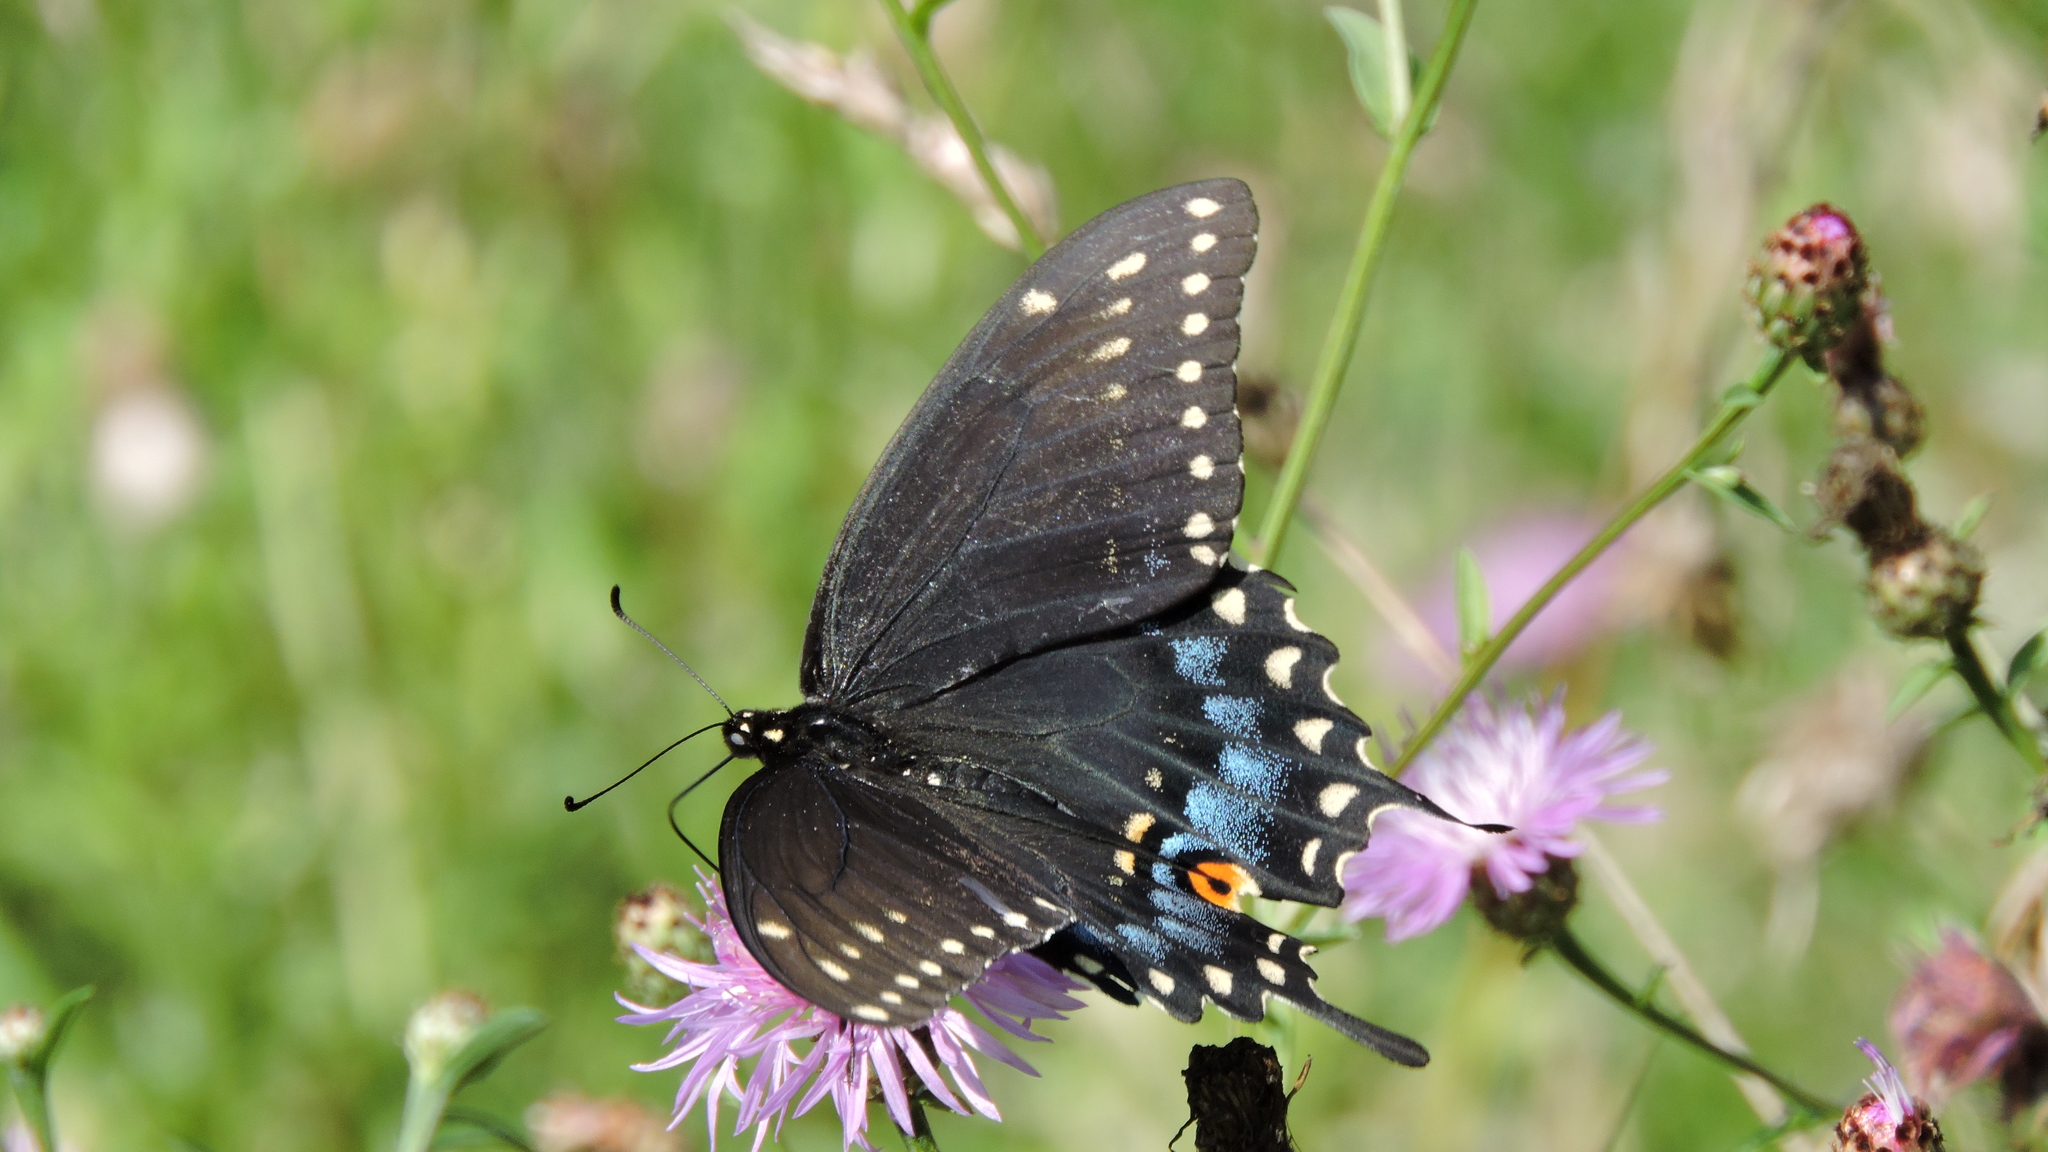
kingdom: Animalia
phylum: Arthropoda
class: Insecta
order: Lepidoptera
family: Papilionidae
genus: Papilio
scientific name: Papilio polyxenes
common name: Black swallowtail
